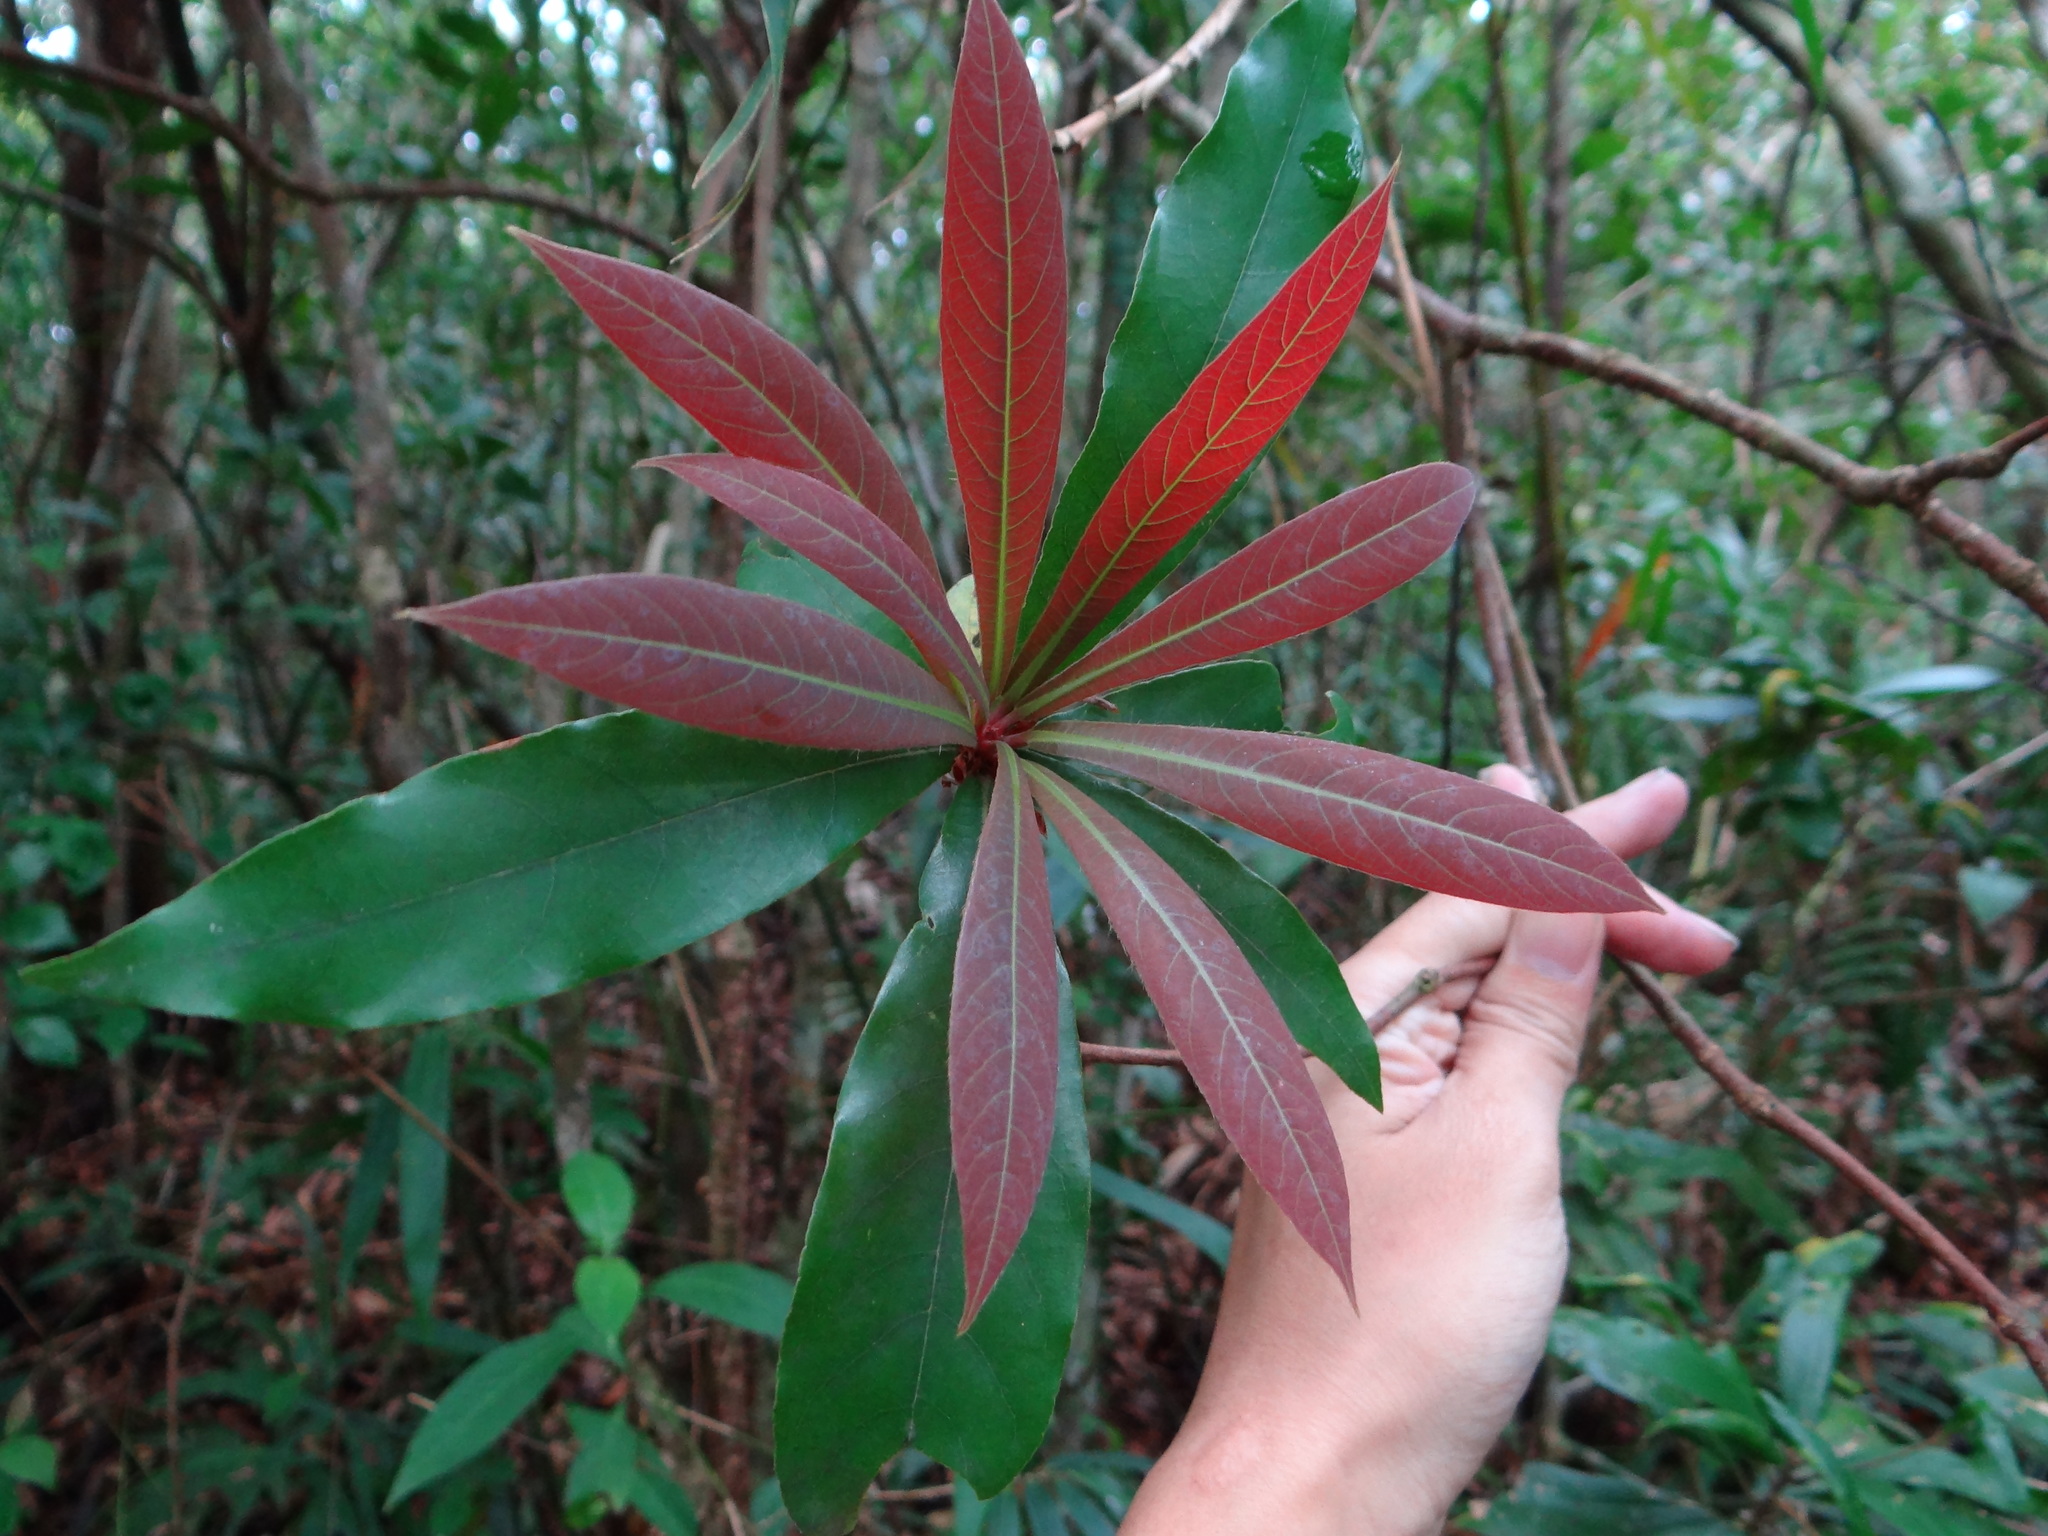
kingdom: Plantae
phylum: Tracheophyta
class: Magnoliopsida
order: Laurales
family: Lauraceae
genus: Litsea
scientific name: Litsea acutivena
